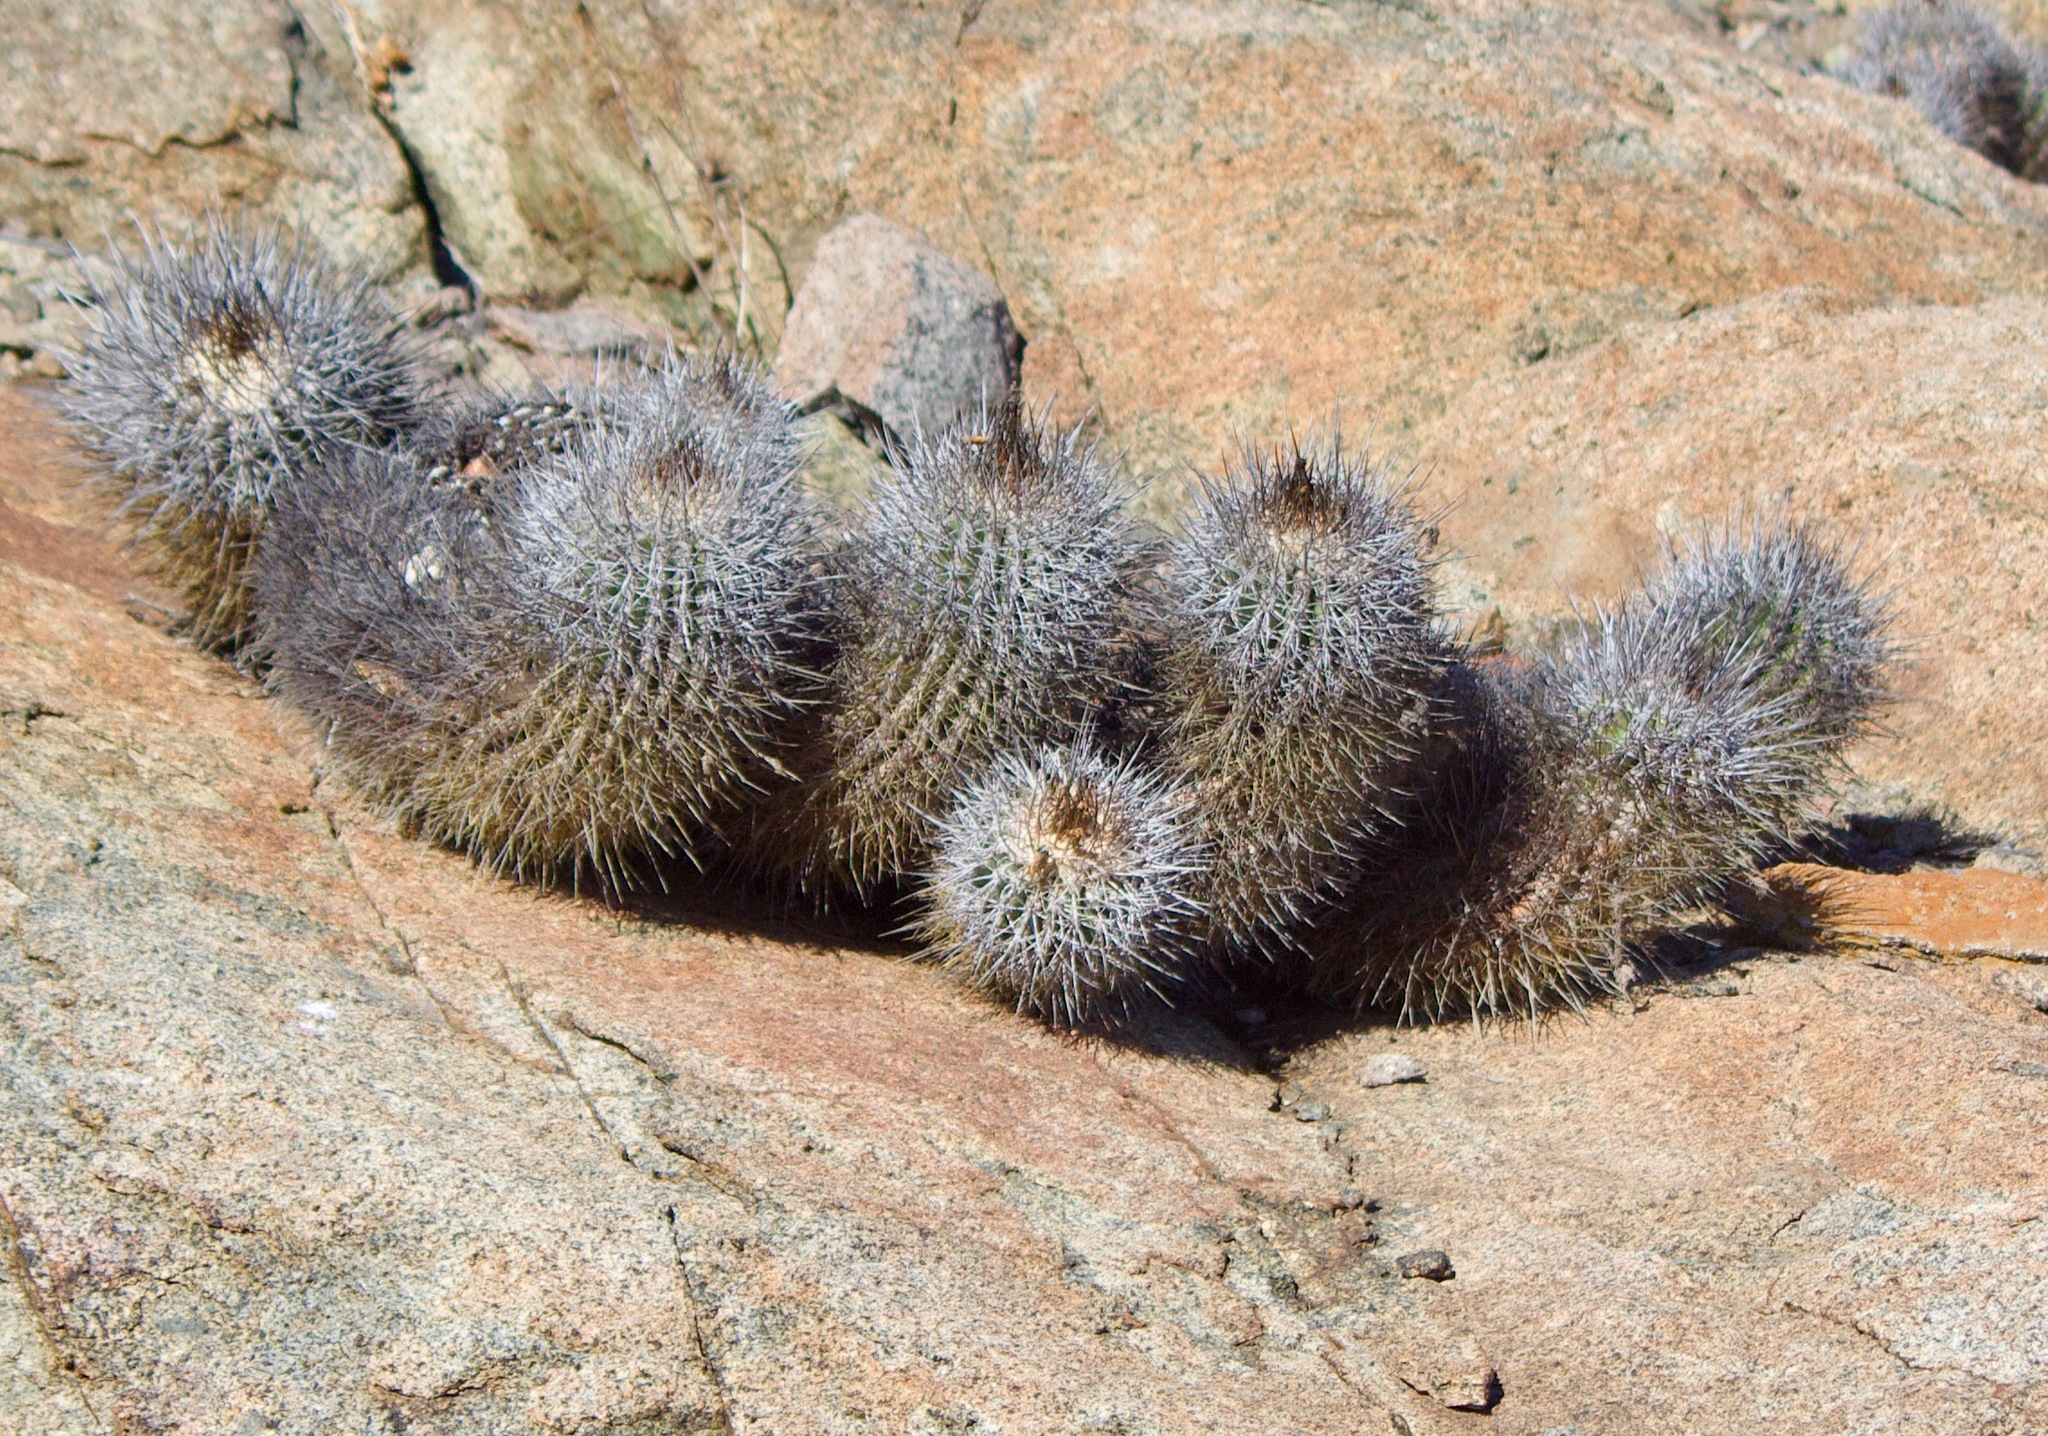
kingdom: Plantae
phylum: Tracheophyta
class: Magnoliopsida
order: Caryophyllales
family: Cactaceae
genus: Copiapoa
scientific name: Copiapoa coquimbana
